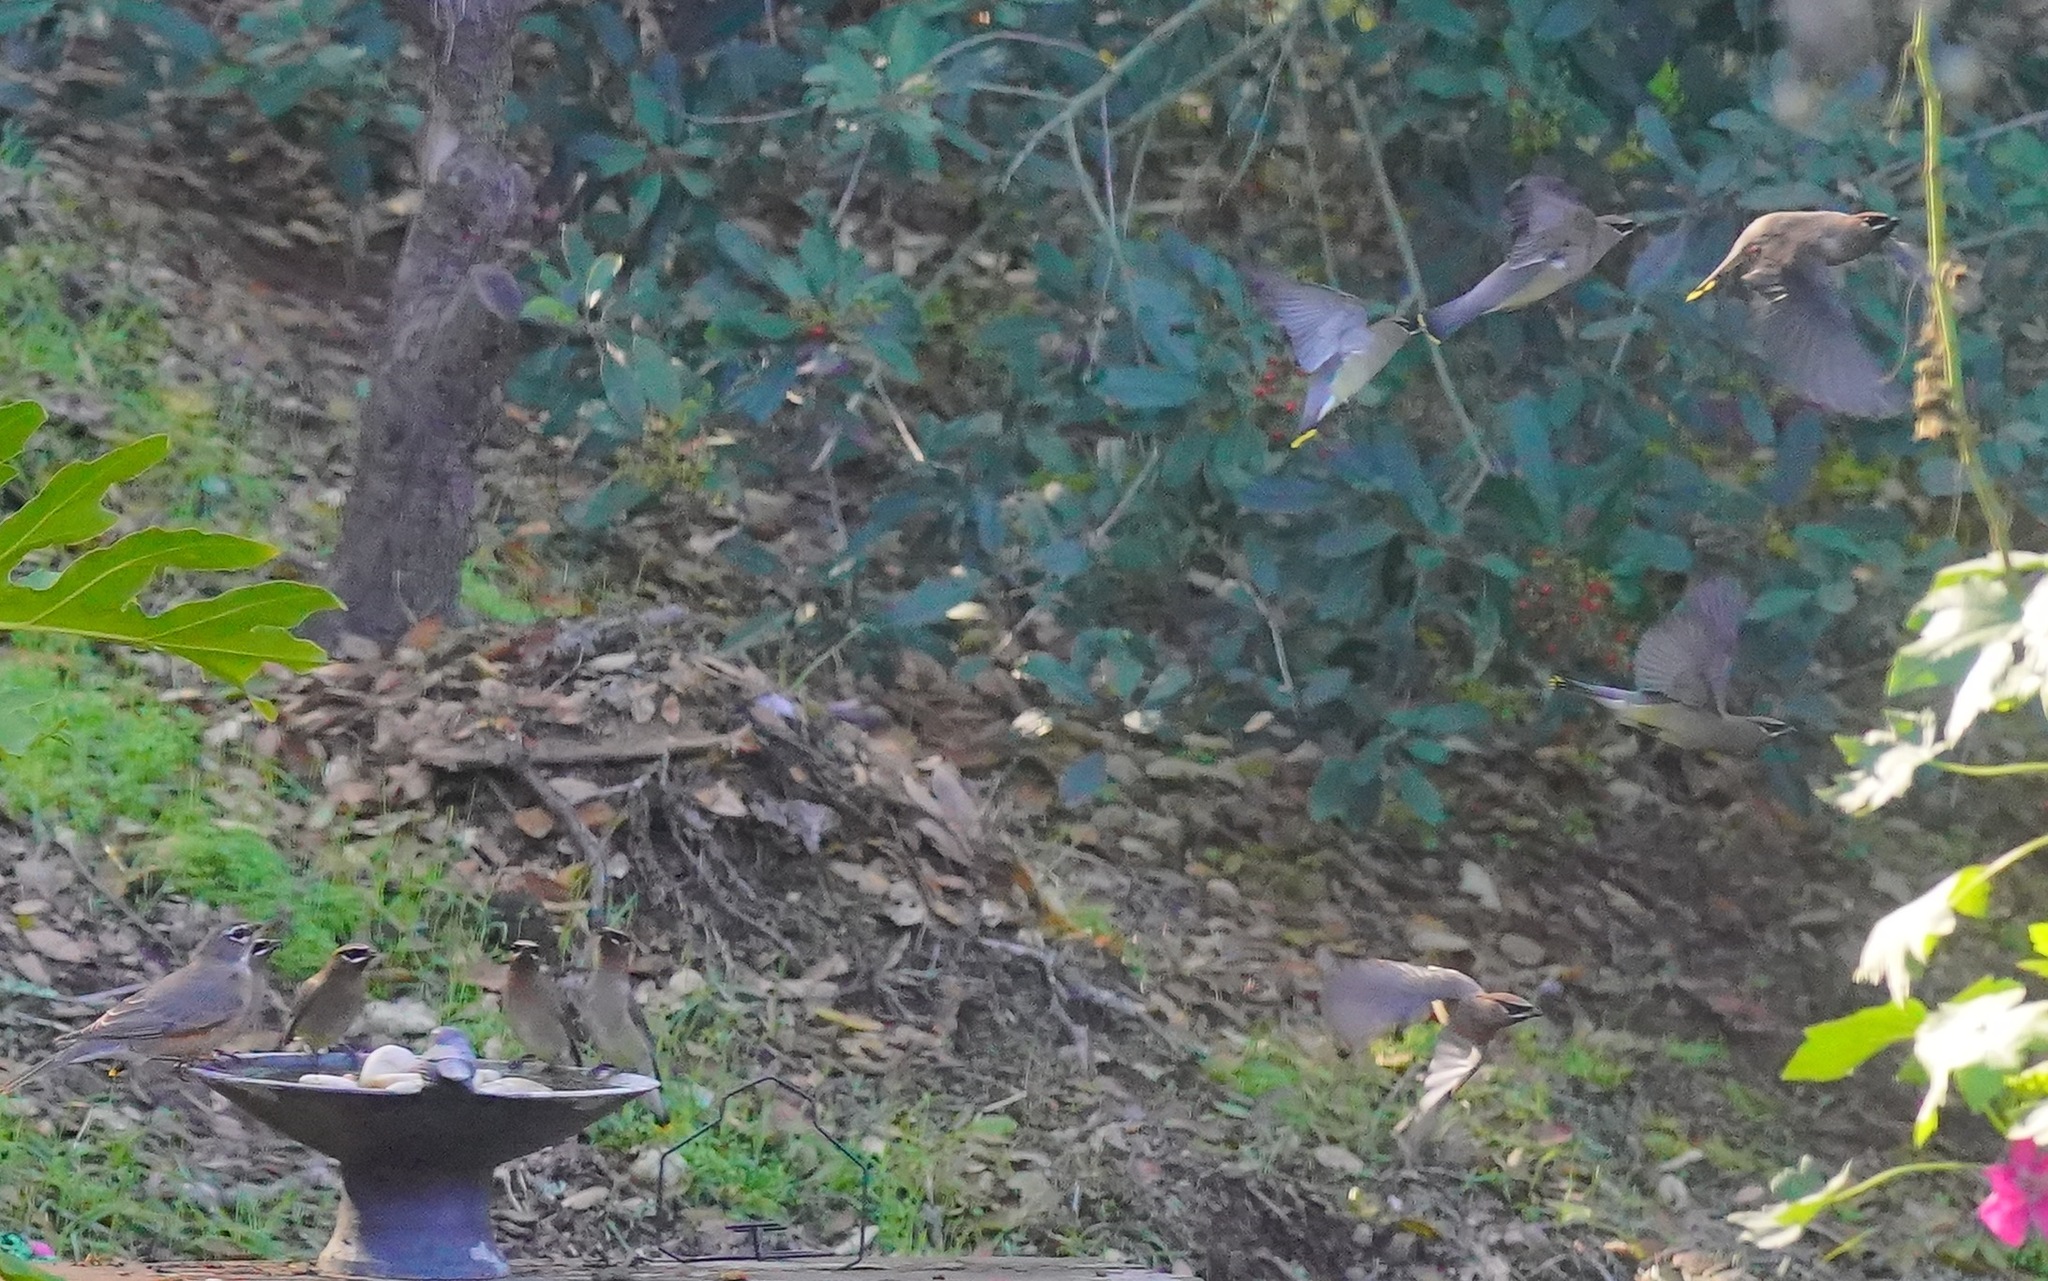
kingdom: Animalia
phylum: Chordata
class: Aves
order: Passeriformes
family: Bombycillidae
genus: Bombycilla
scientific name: Bombycilla cedrorum
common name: Cedar waxwing
